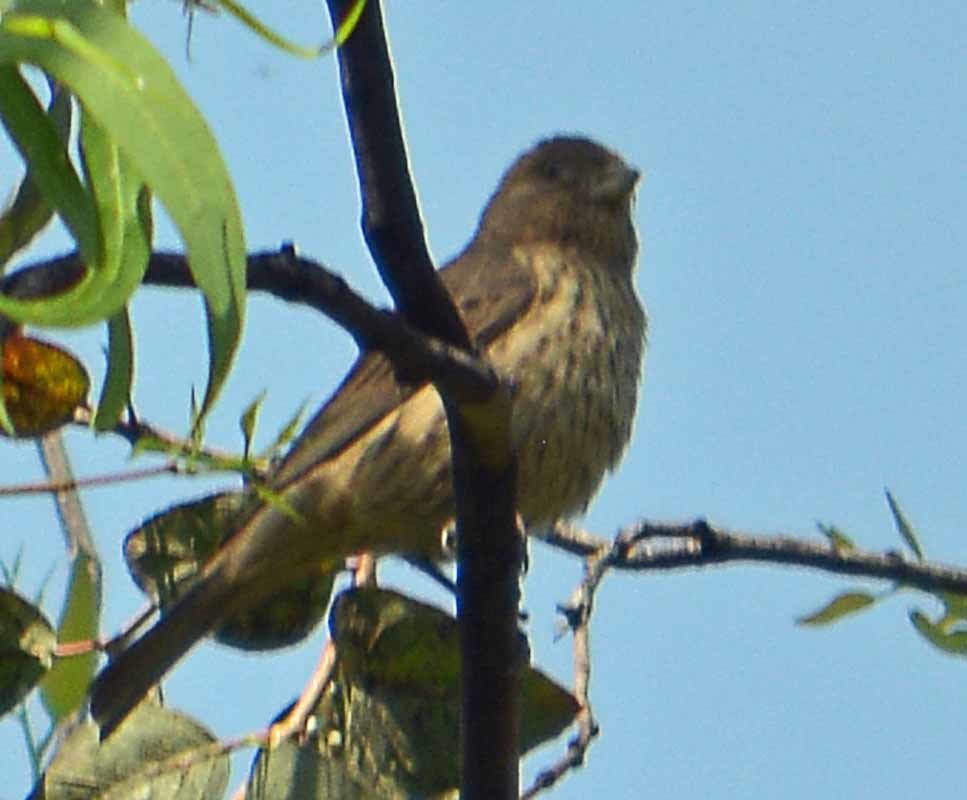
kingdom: Animalia
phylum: Chordata
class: Aves
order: Passeriformes
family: Fringillidae
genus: Haemorhous
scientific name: Haemorhous mexicanus
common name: House finch
